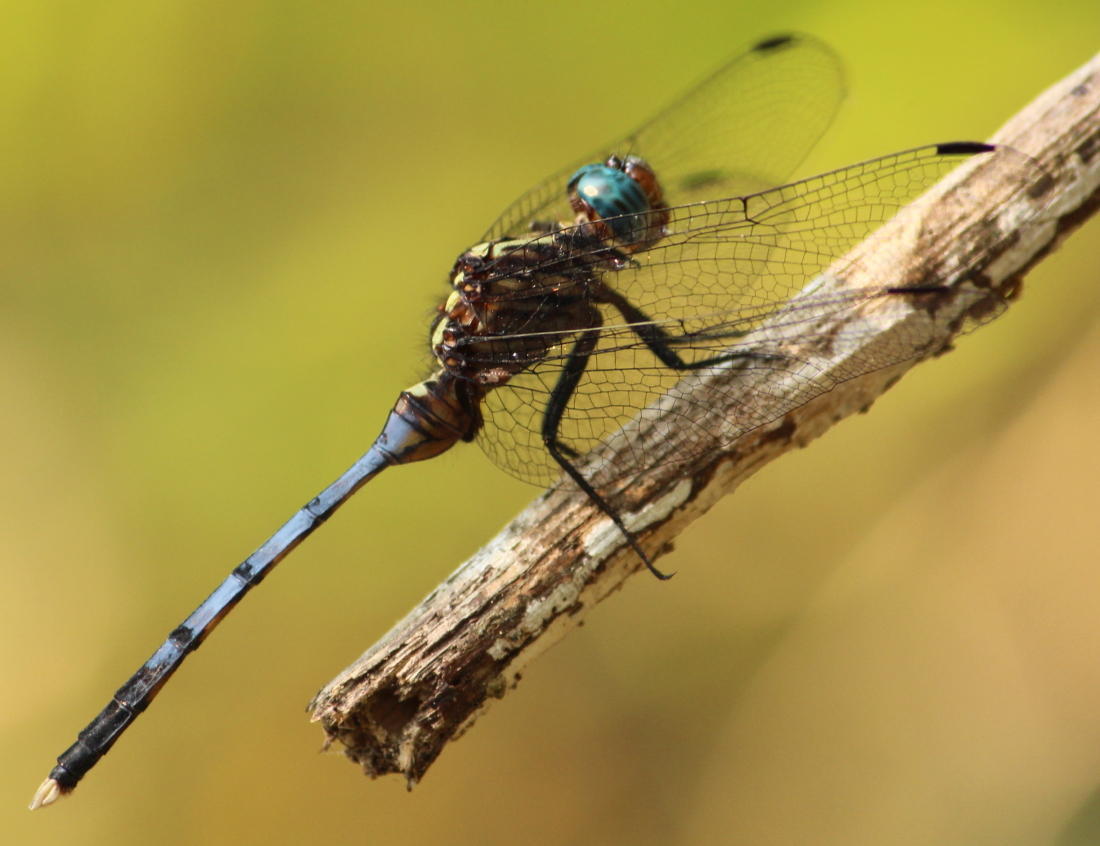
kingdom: Animalia
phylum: Arthropoda
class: Insecta
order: Odonata
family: Libellulidae
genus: Orthetrum
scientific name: Orthetrum julia
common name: Julia skimmer
